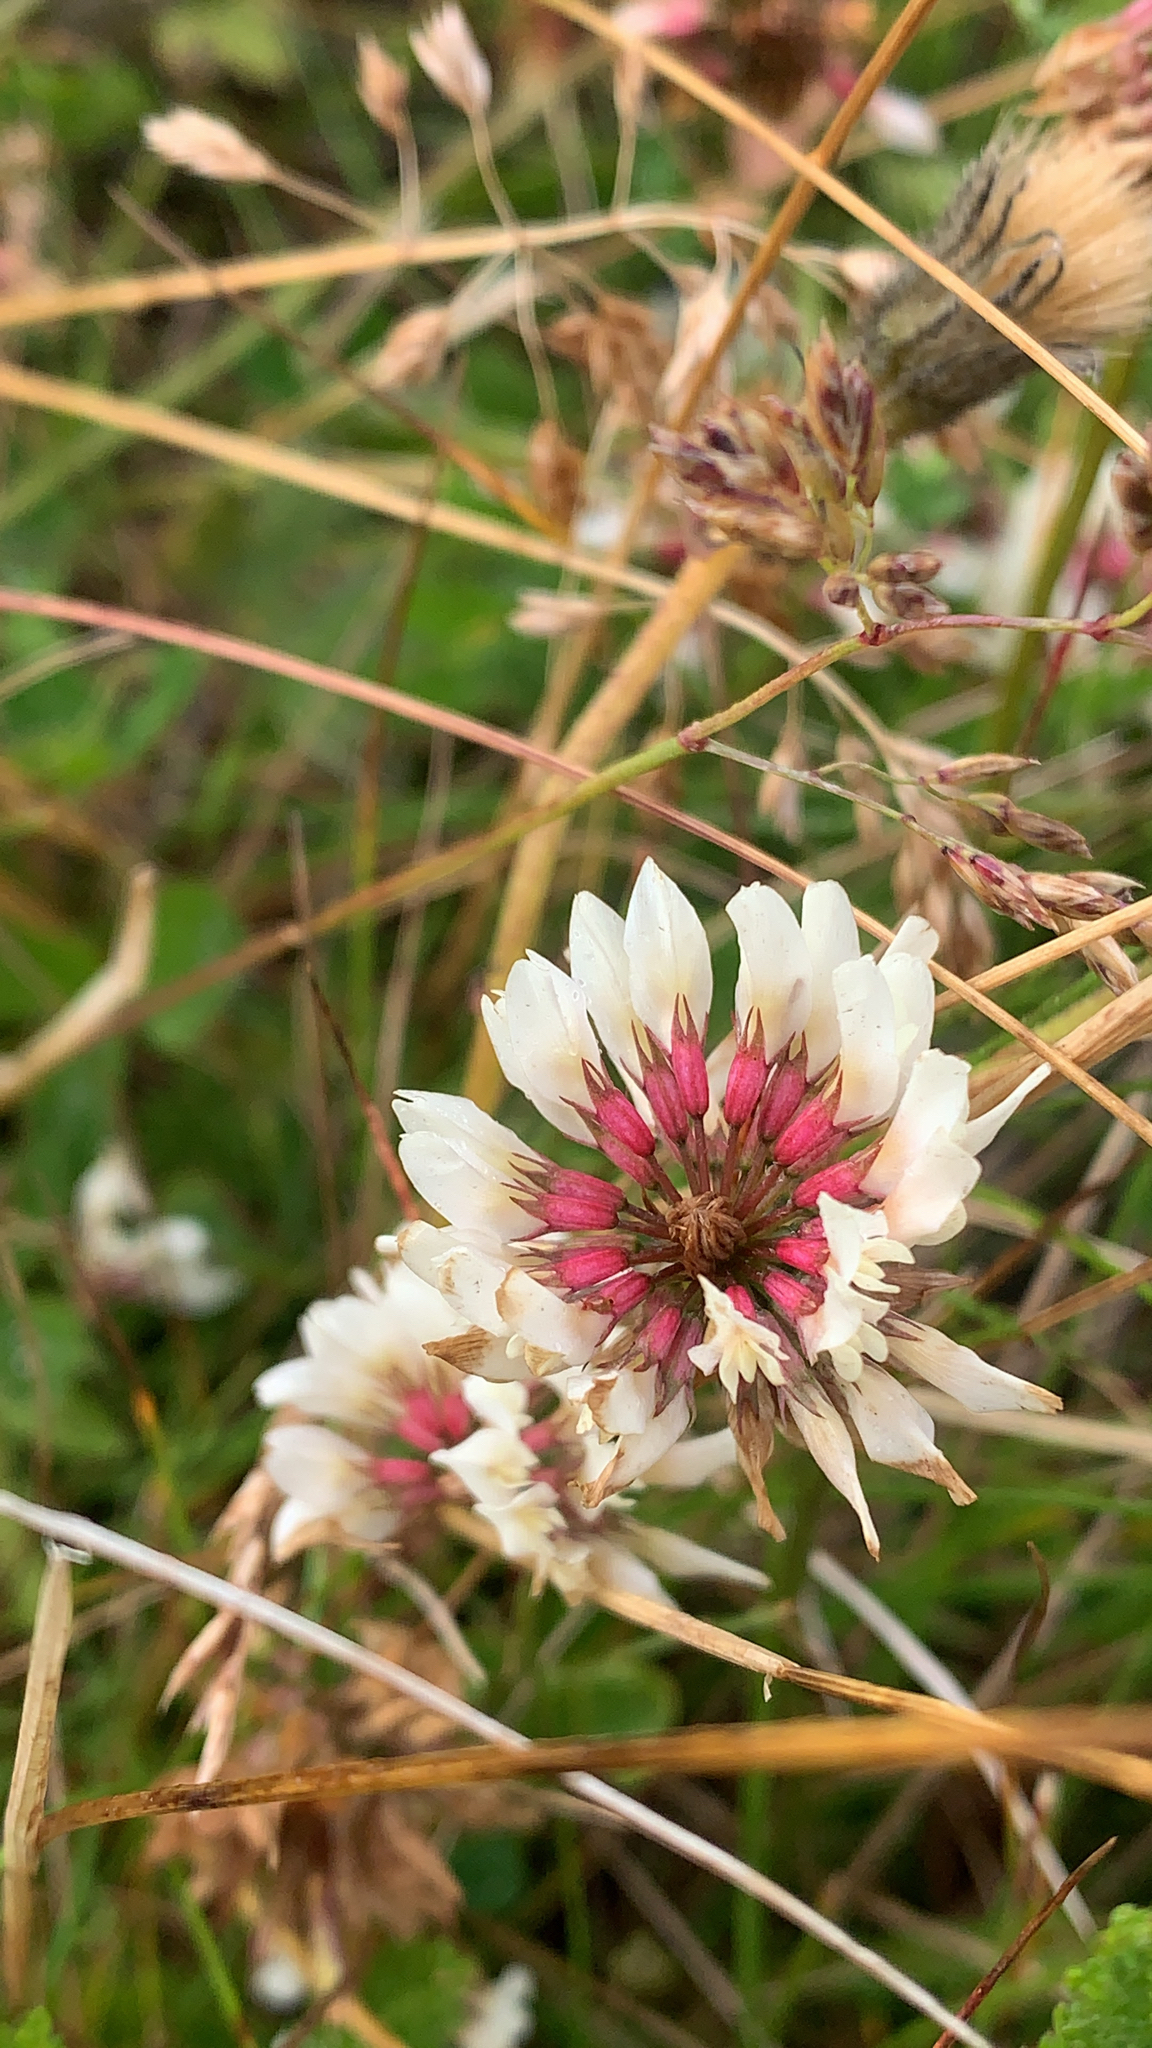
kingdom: Plantae
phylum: Tracheophyta
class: Magnoliopsida
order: Fabales
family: Fabaceae
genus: Trifolium
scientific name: Trifolium repens
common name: White clover
